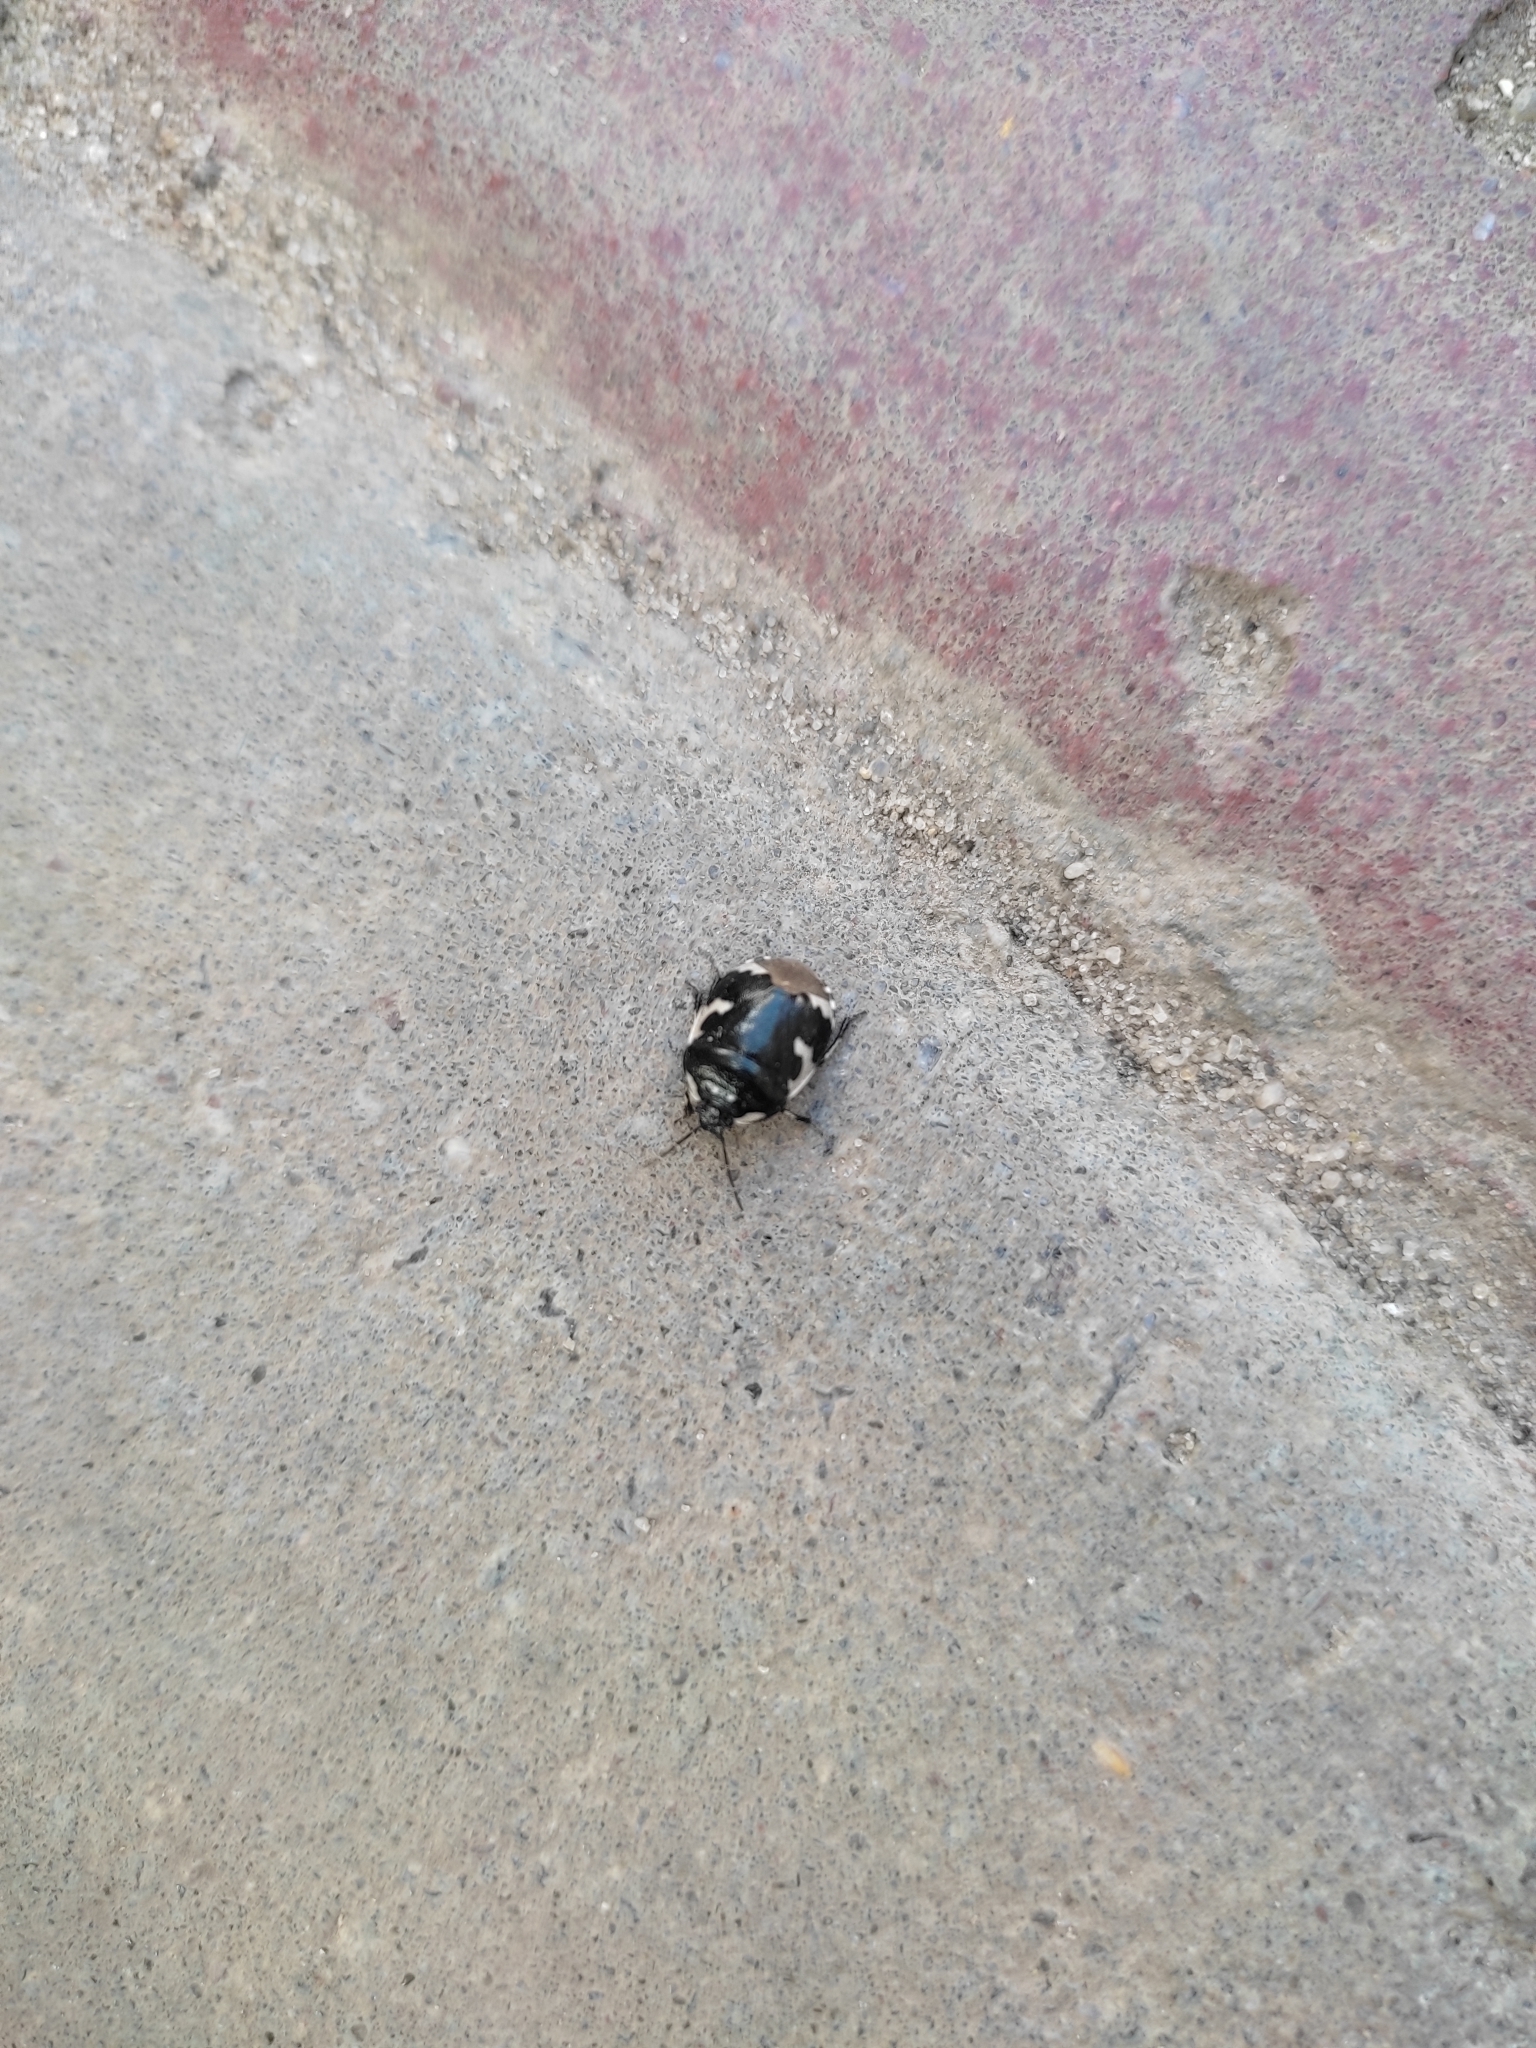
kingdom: Animalia
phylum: Arthropoda
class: Insecta
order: Hemiptera
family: Cydnidae
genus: Tritomegas
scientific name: Tritomegas bicolor
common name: Pied shieldbug
